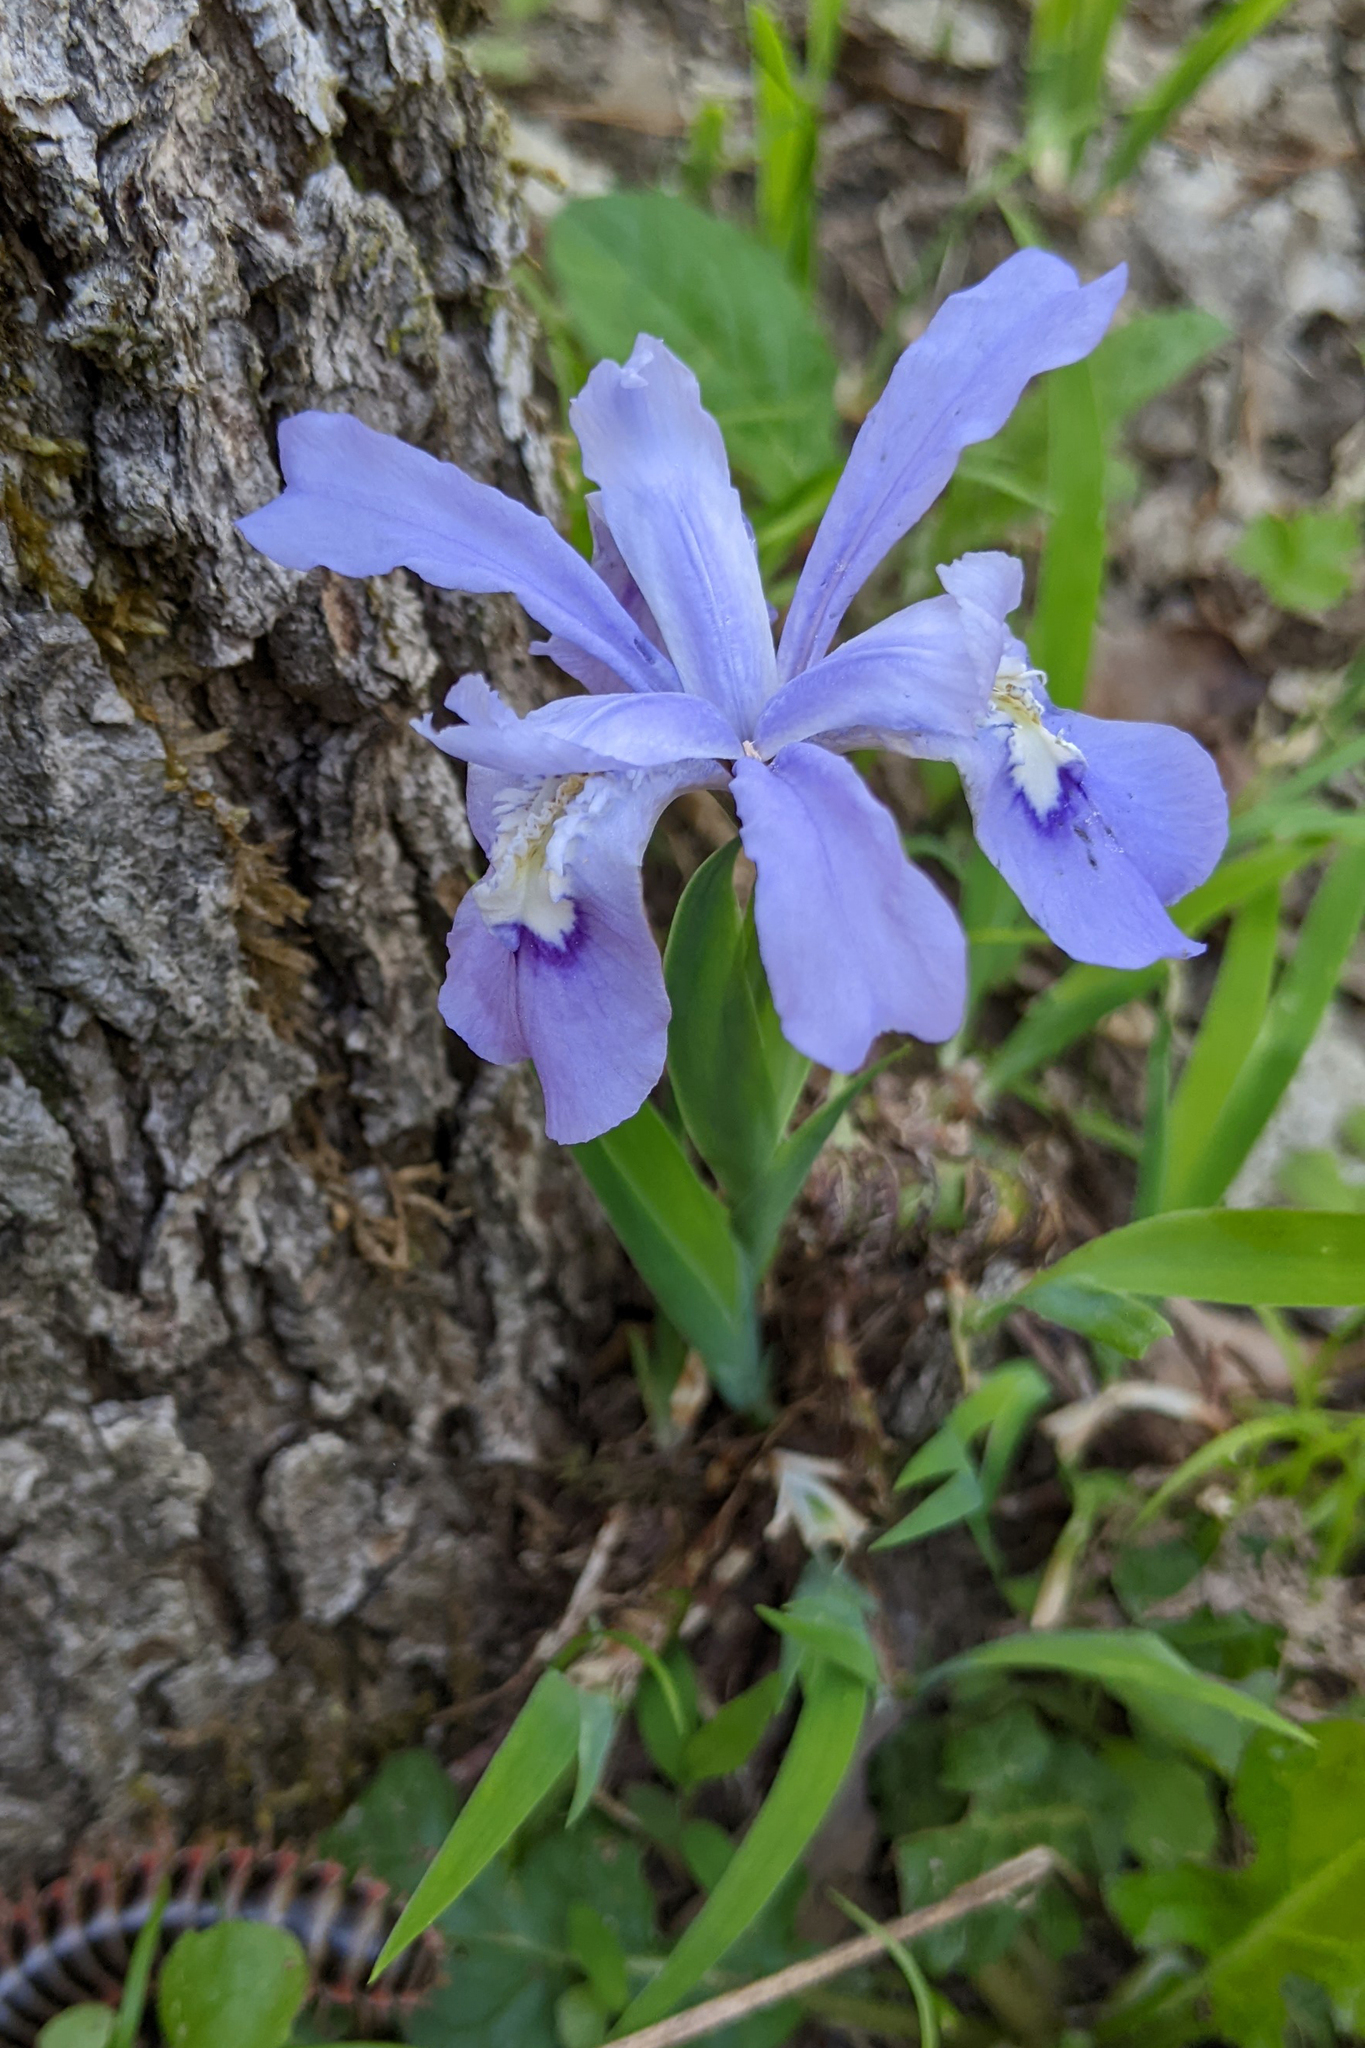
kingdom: Plantae
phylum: Tracheophyta
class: Liliopsida
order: Asparagales
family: Iridaceae
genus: Iris
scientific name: Iris cristata
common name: Crested iris
